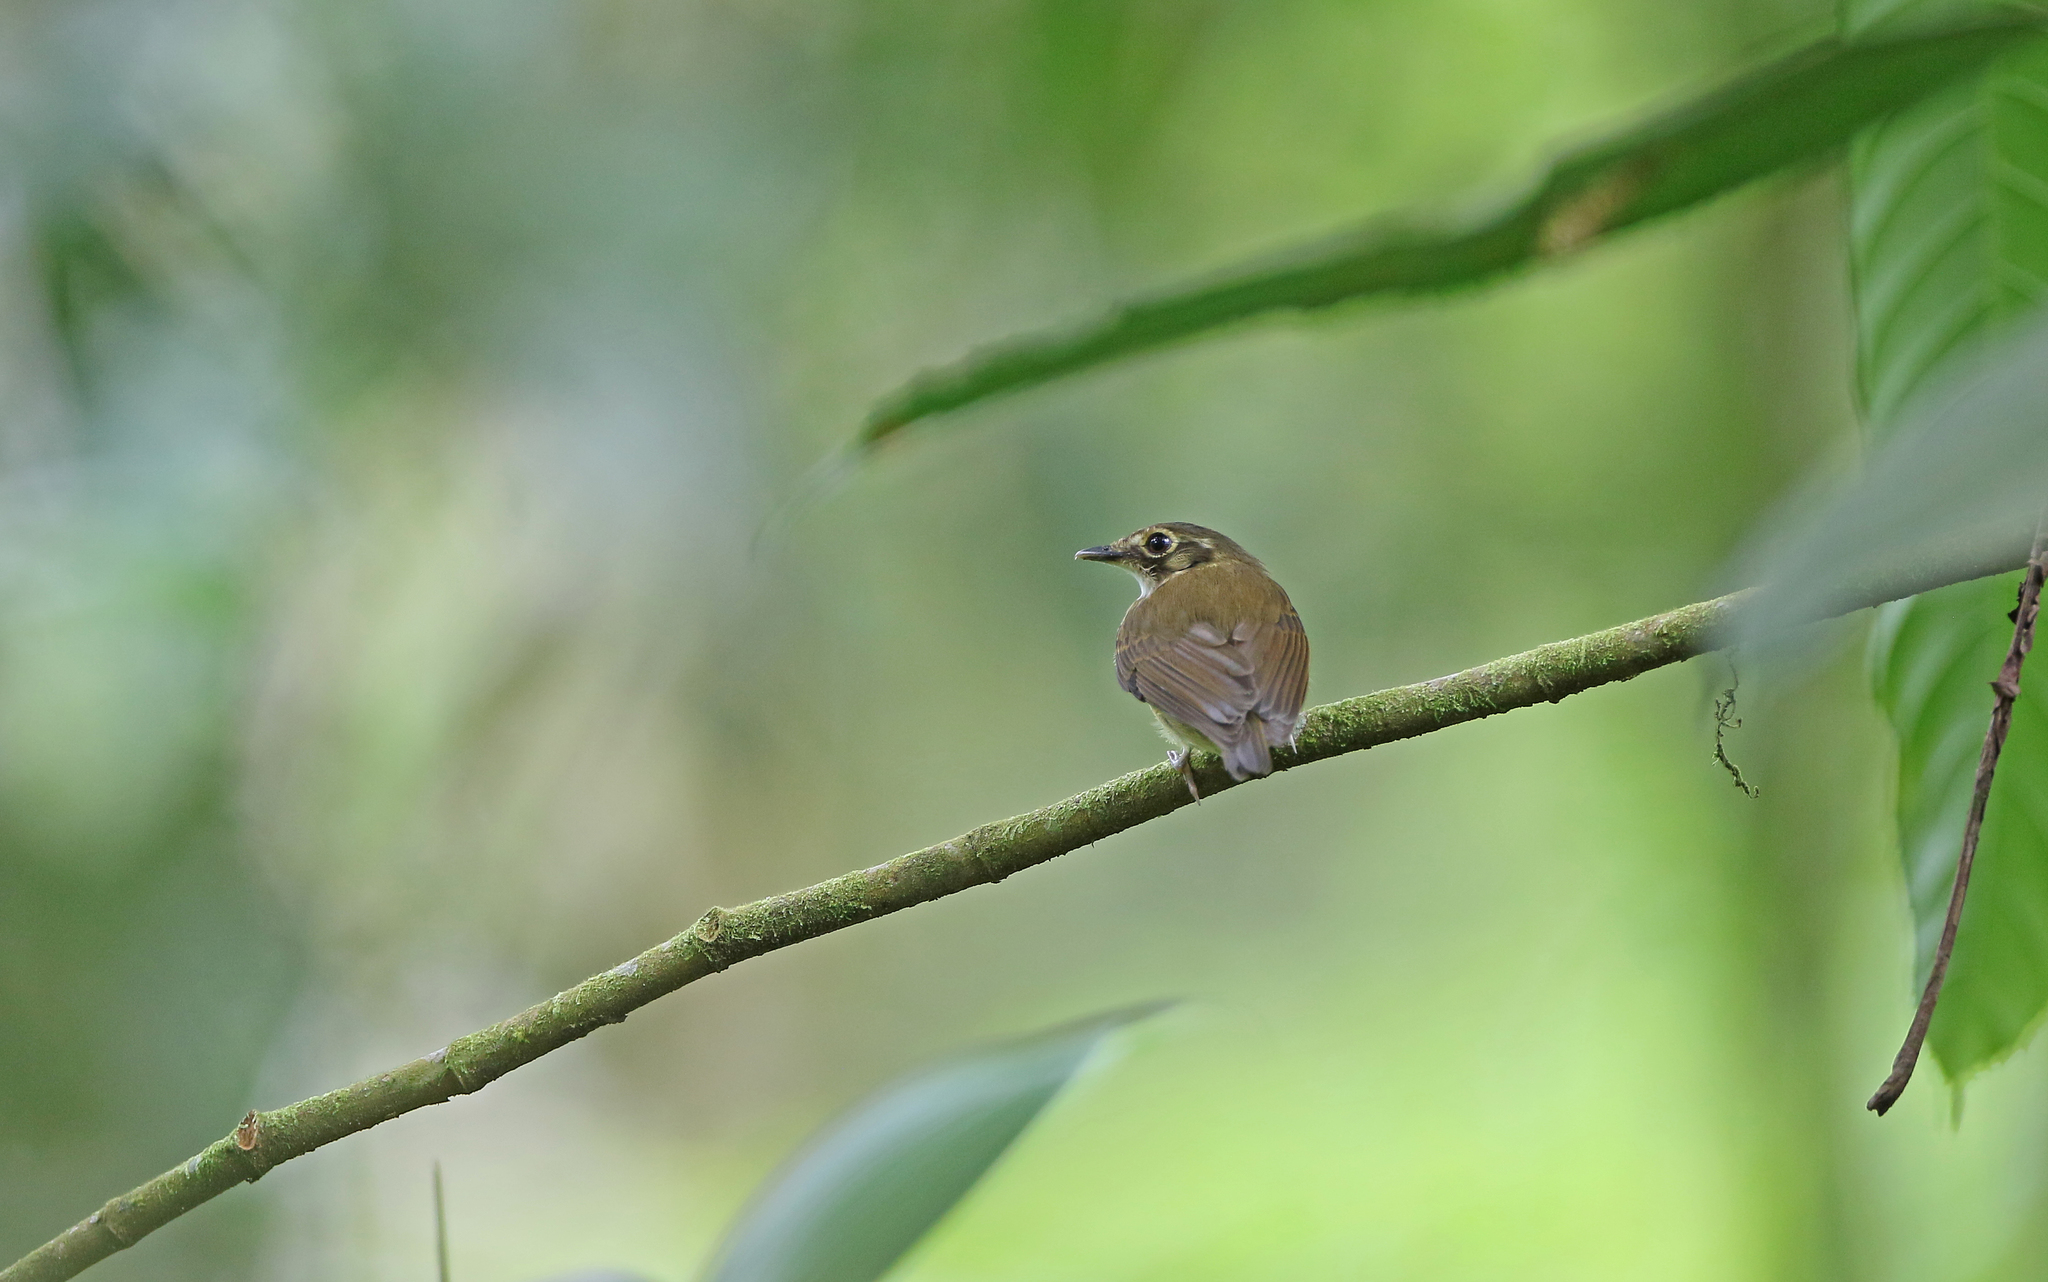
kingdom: Animalia
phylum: Chordata
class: Aves
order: Passeriformes
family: Tyrannidae
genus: Platyrinchus
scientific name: Platyrinchus mystaceus
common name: White-throated spadebill
